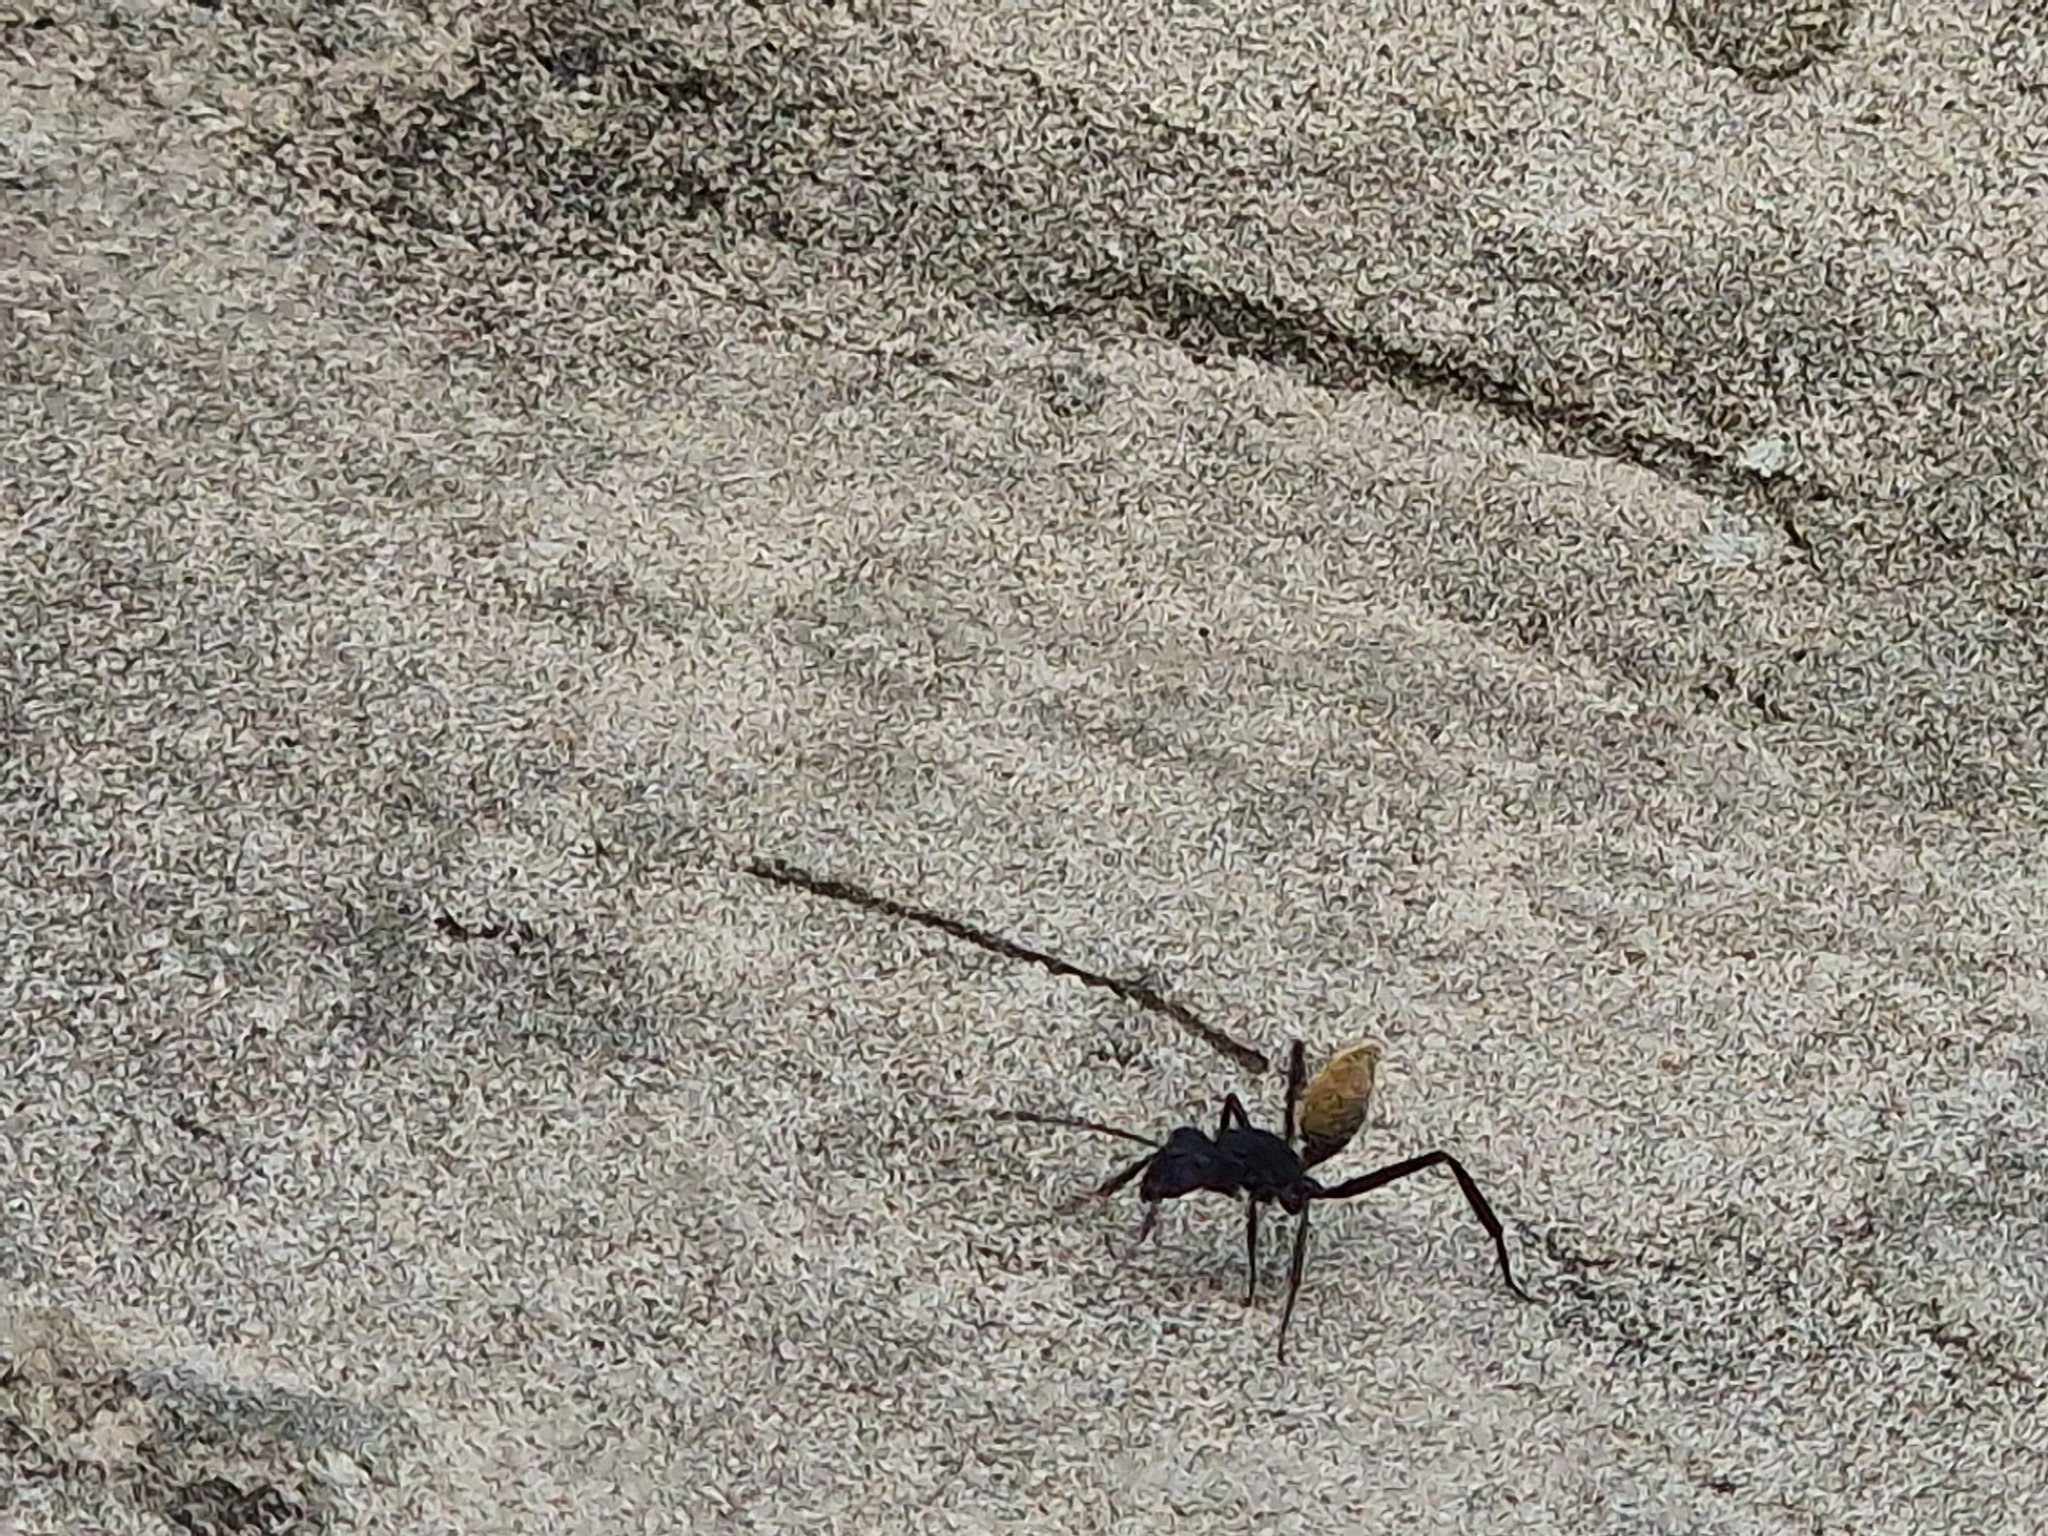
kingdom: Animalia
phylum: Arthropoda
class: Insecta
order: Hymenoptera
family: Formicidae
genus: Camponotus
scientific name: Camponotus fulvopilosus
